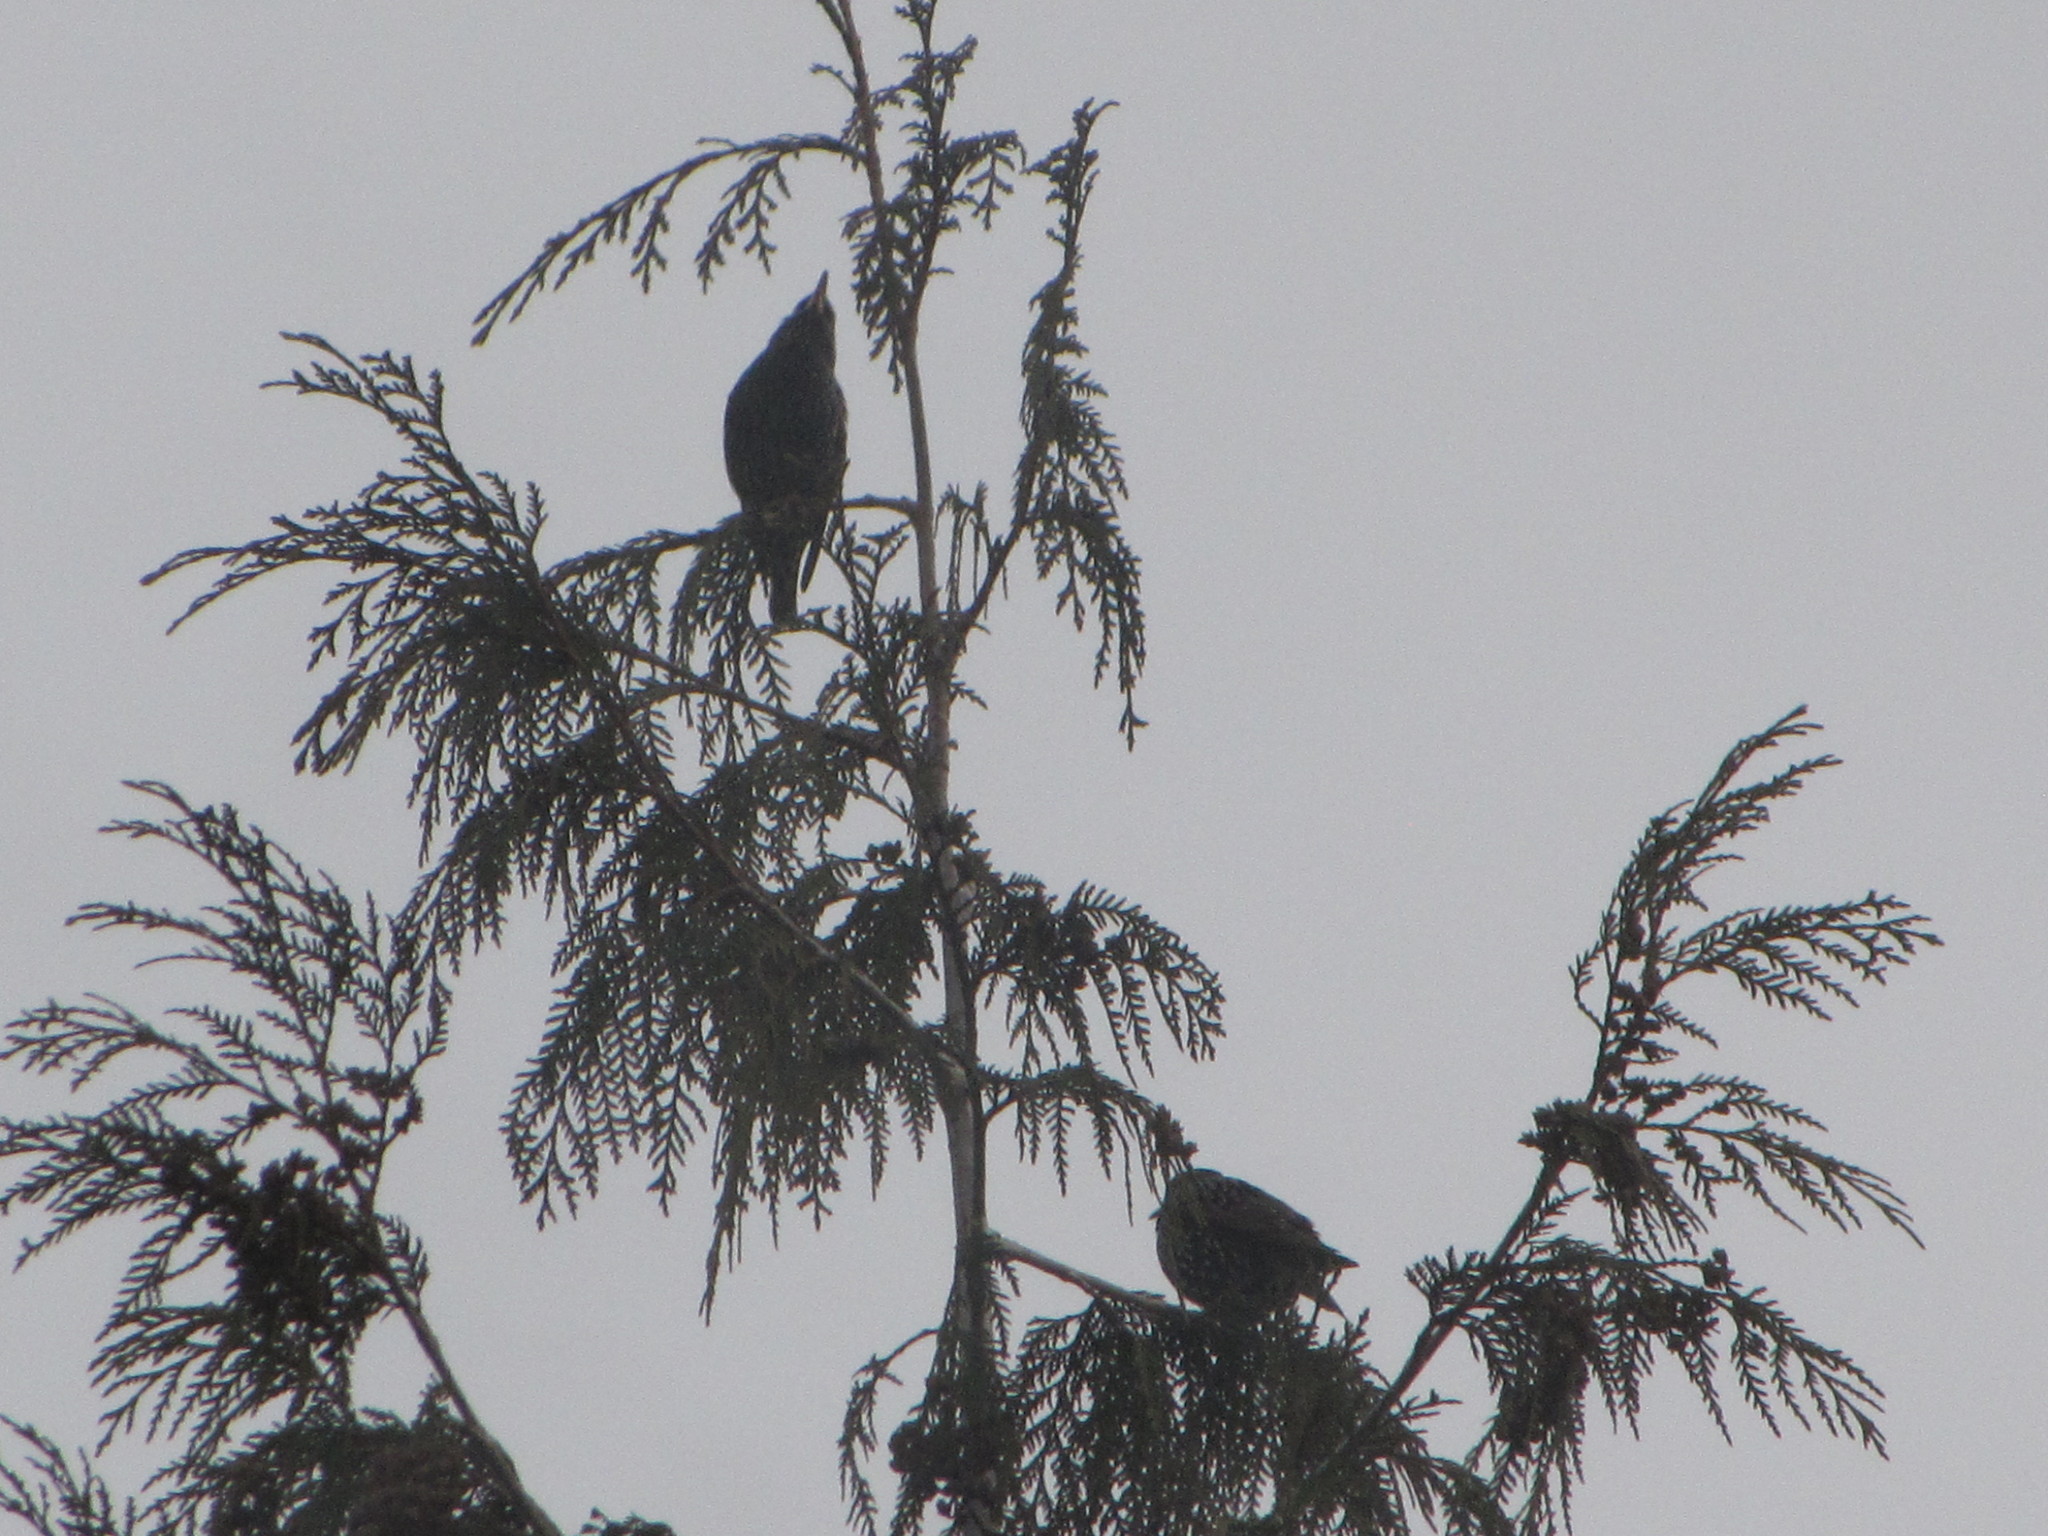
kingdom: Animalia
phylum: Chordata
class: Aves
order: Passeriformes
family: Sturnidae
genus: Sturnus
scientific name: Sturnus vulgaris
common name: Common starling
